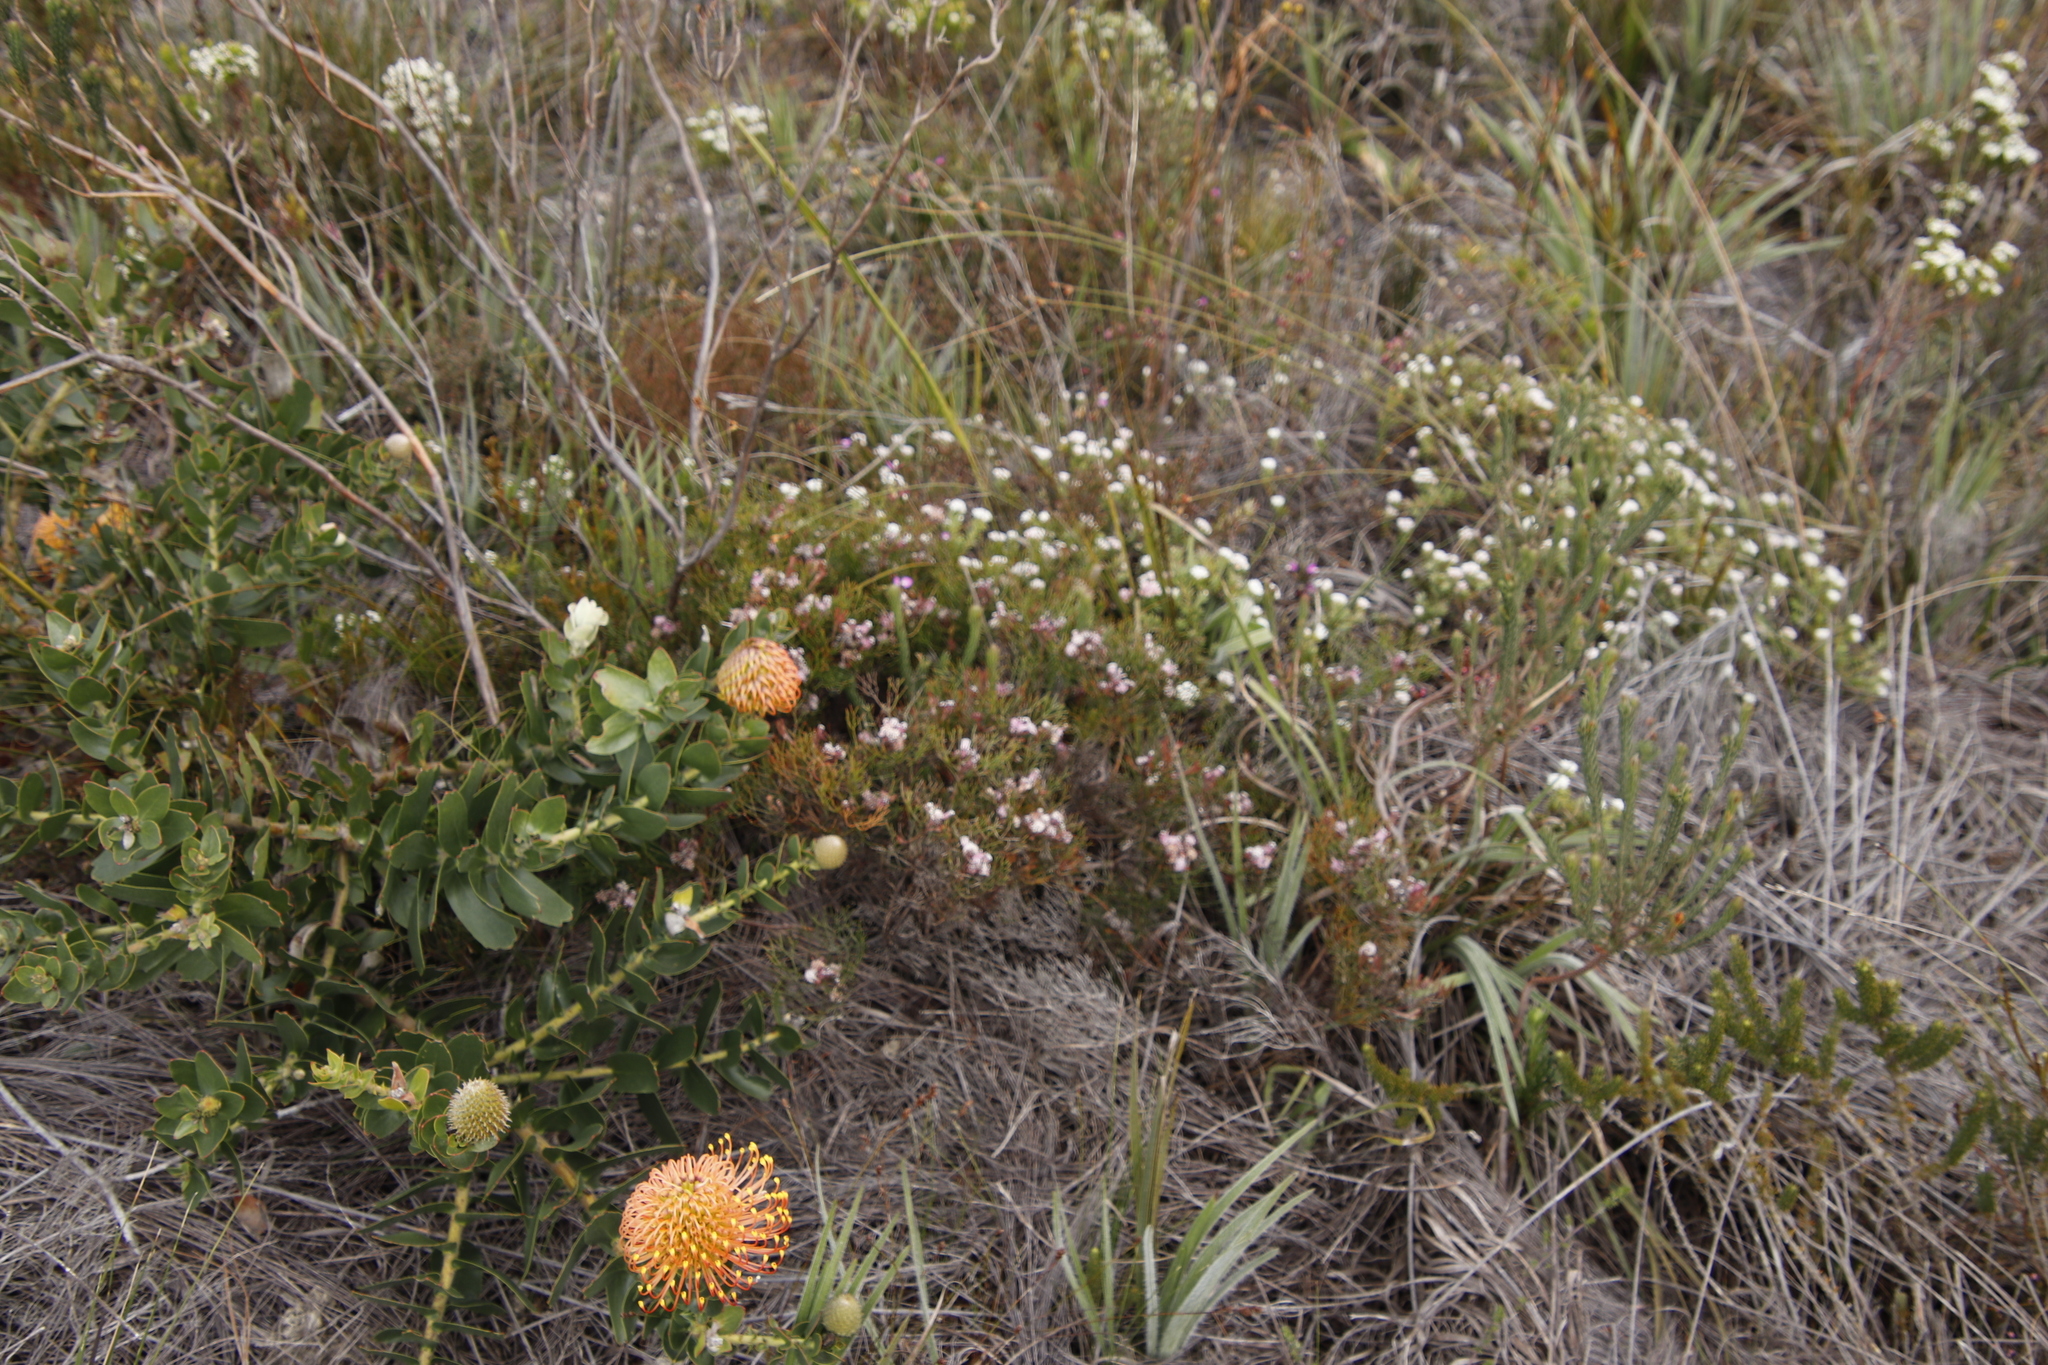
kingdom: Plantae
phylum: Tracheophyta
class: Magnoliopsida
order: Proteales
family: Proteaceae
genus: Serruria
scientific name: Serruria fasciflora
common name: Common pin spiderhead
